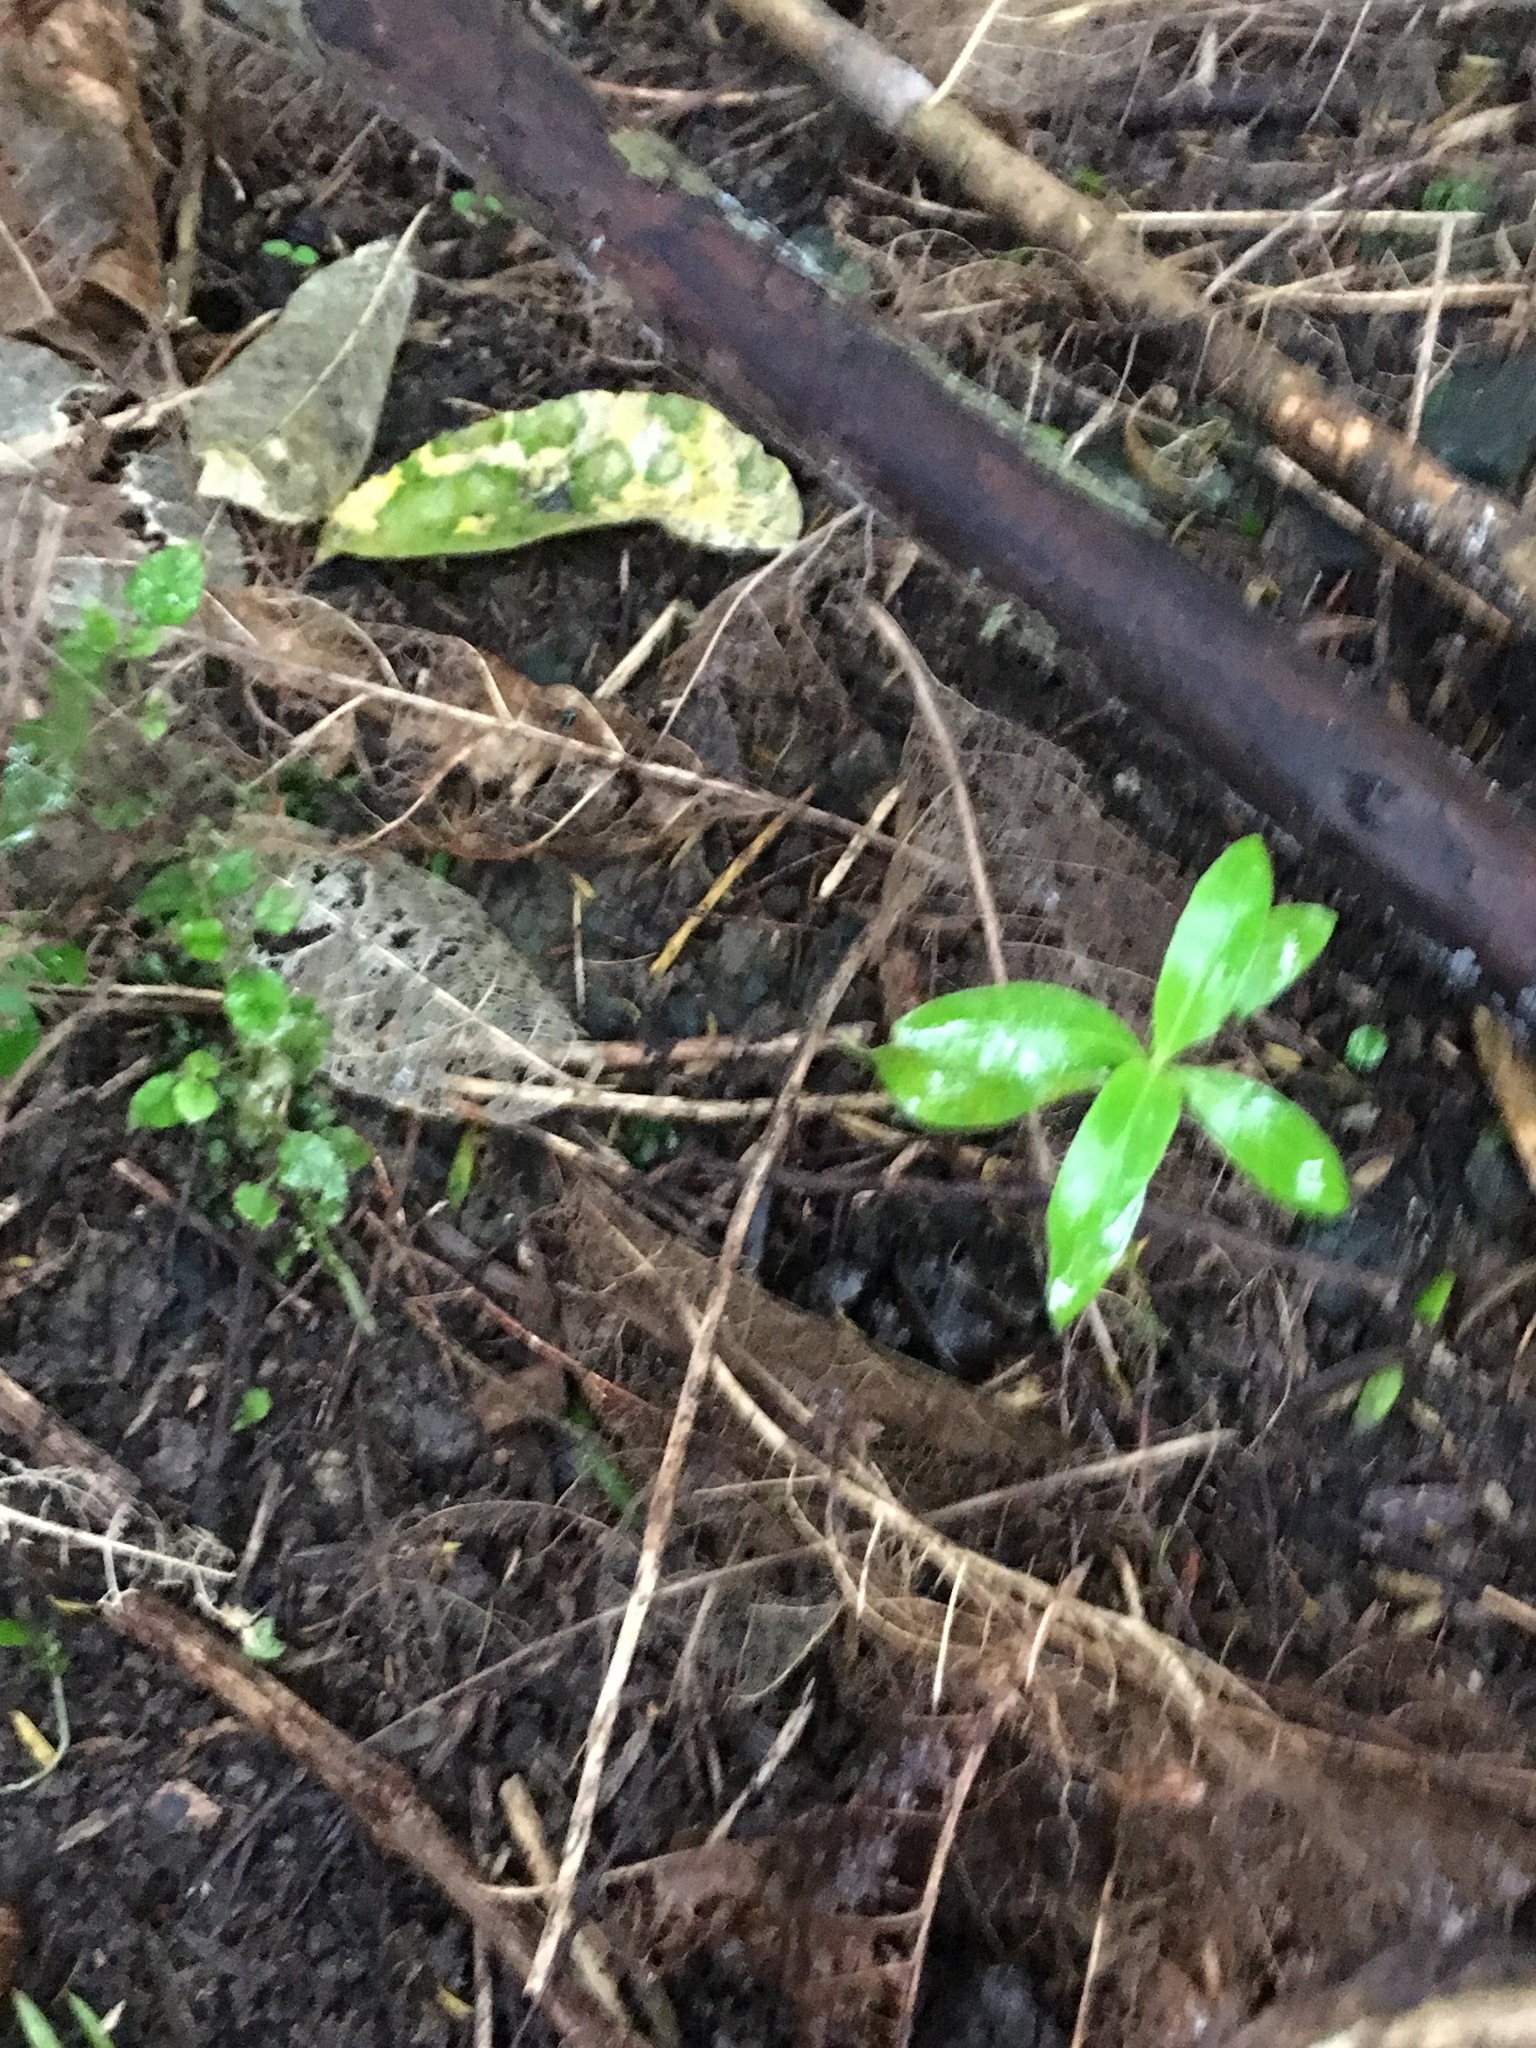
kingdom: Plantae
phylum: Tracheophyta
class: Magnoliopsida
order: Gentianales
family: Rubiaceae
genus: Coprosma
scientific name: Coprosma areolata
